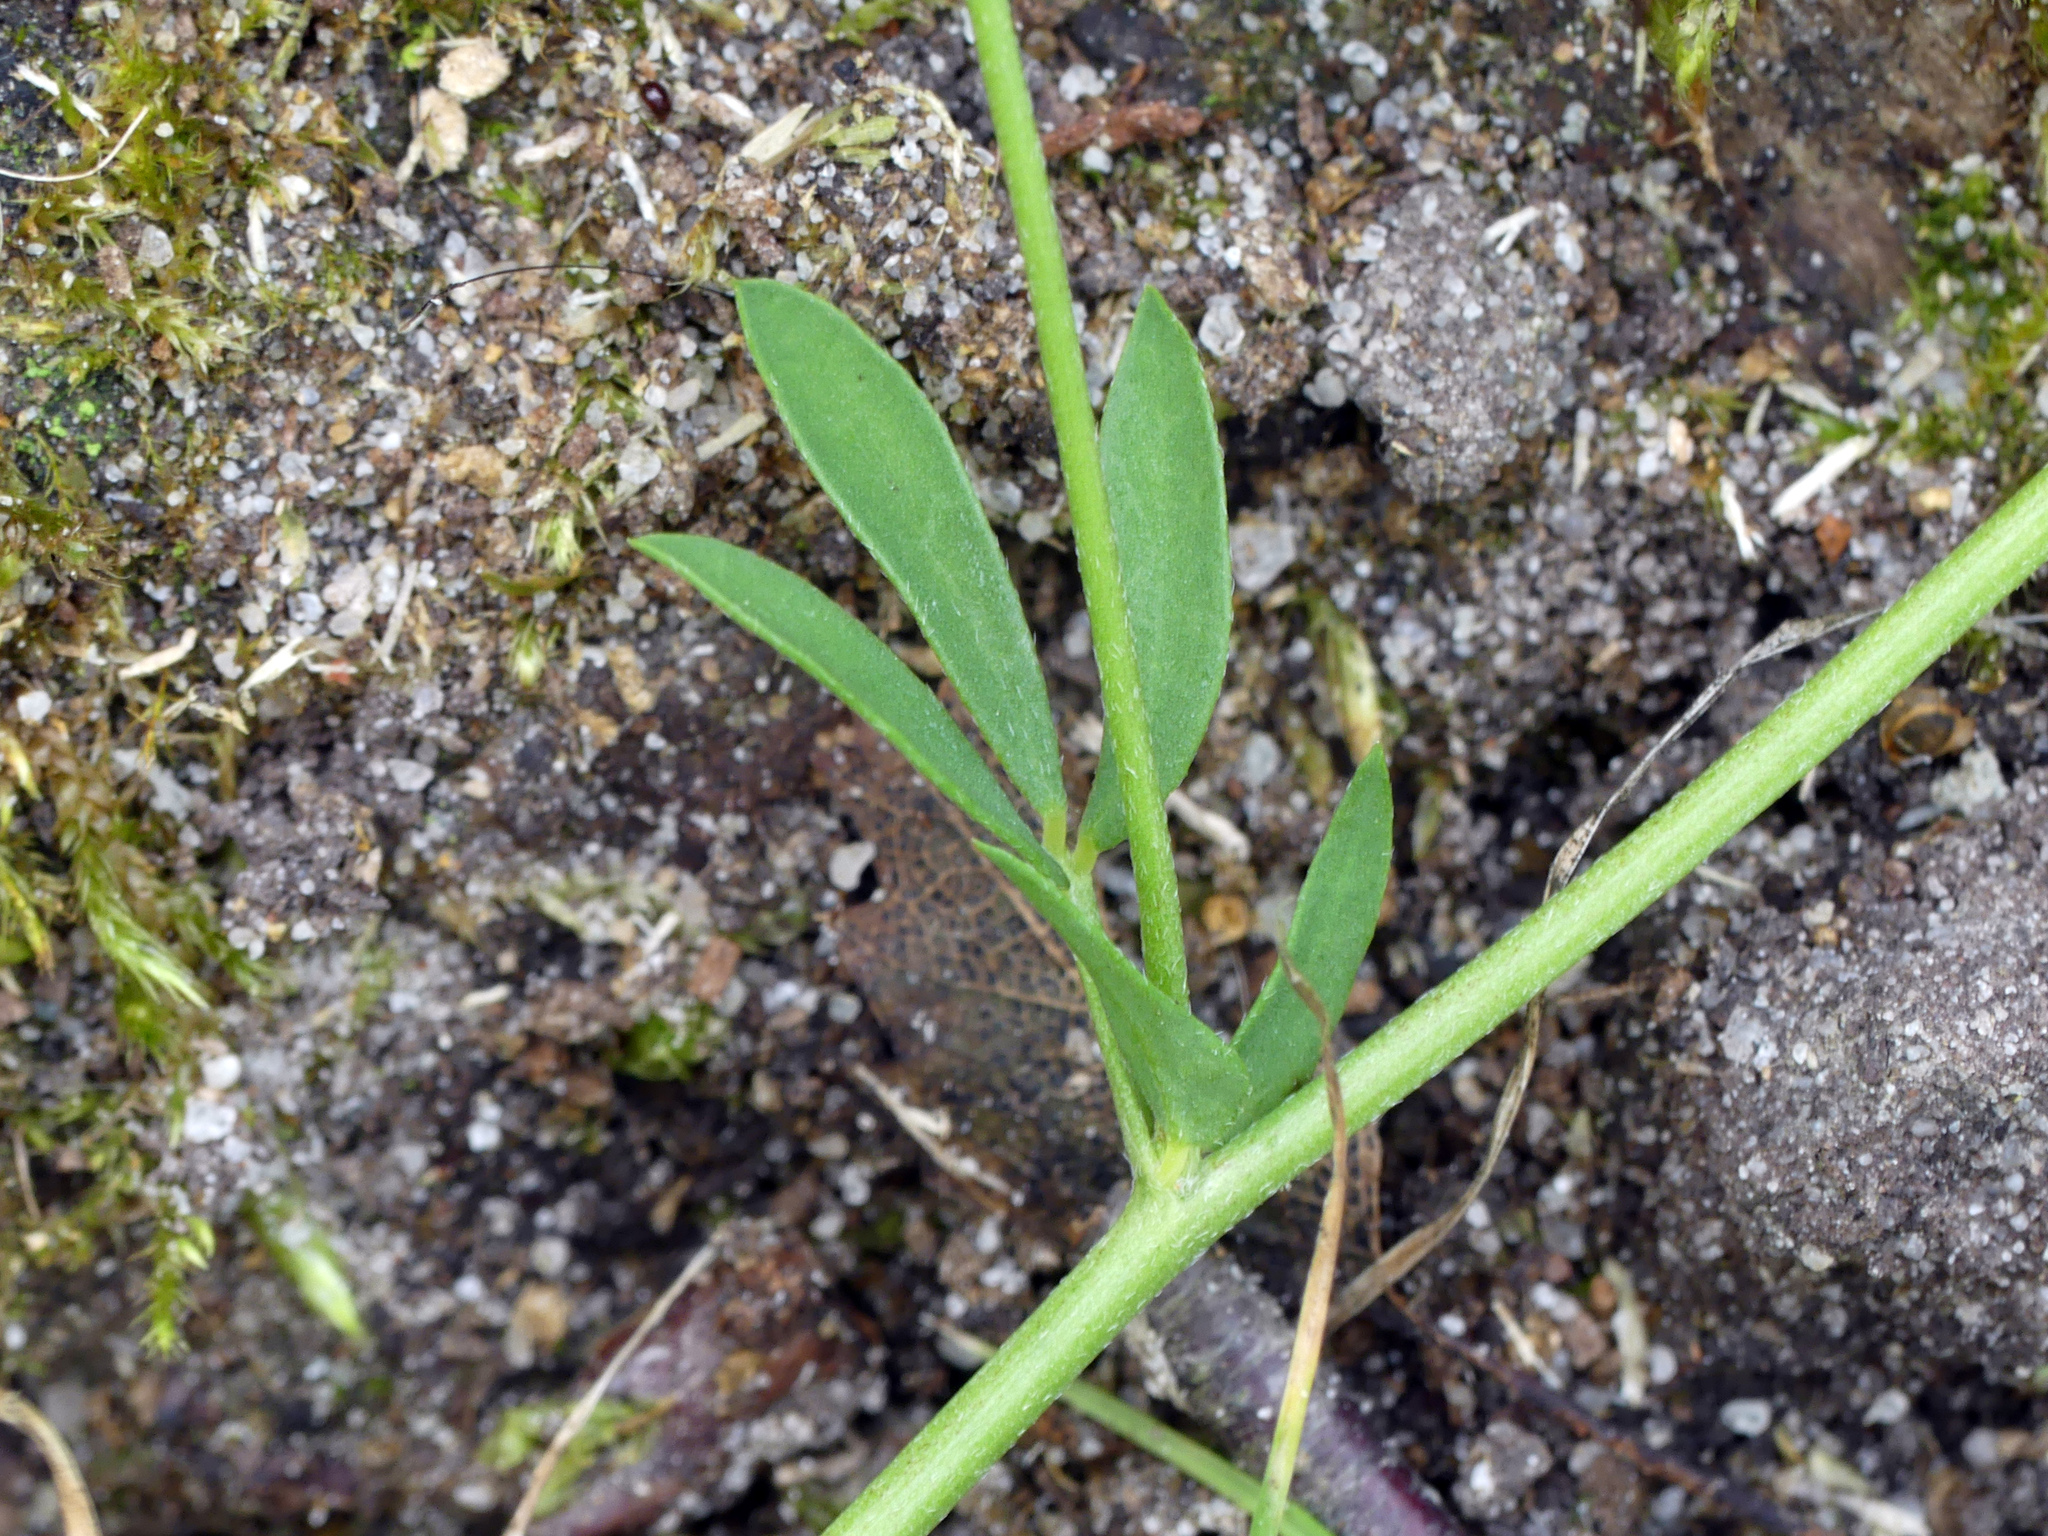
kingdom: Plantae
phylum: Tracheophyta
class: Magnoliopsida
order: Fabales
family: Fabaceae
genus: Lotus
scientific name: Lotus tenuis
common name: Narrow-leaved bird's-foot-trefoil
